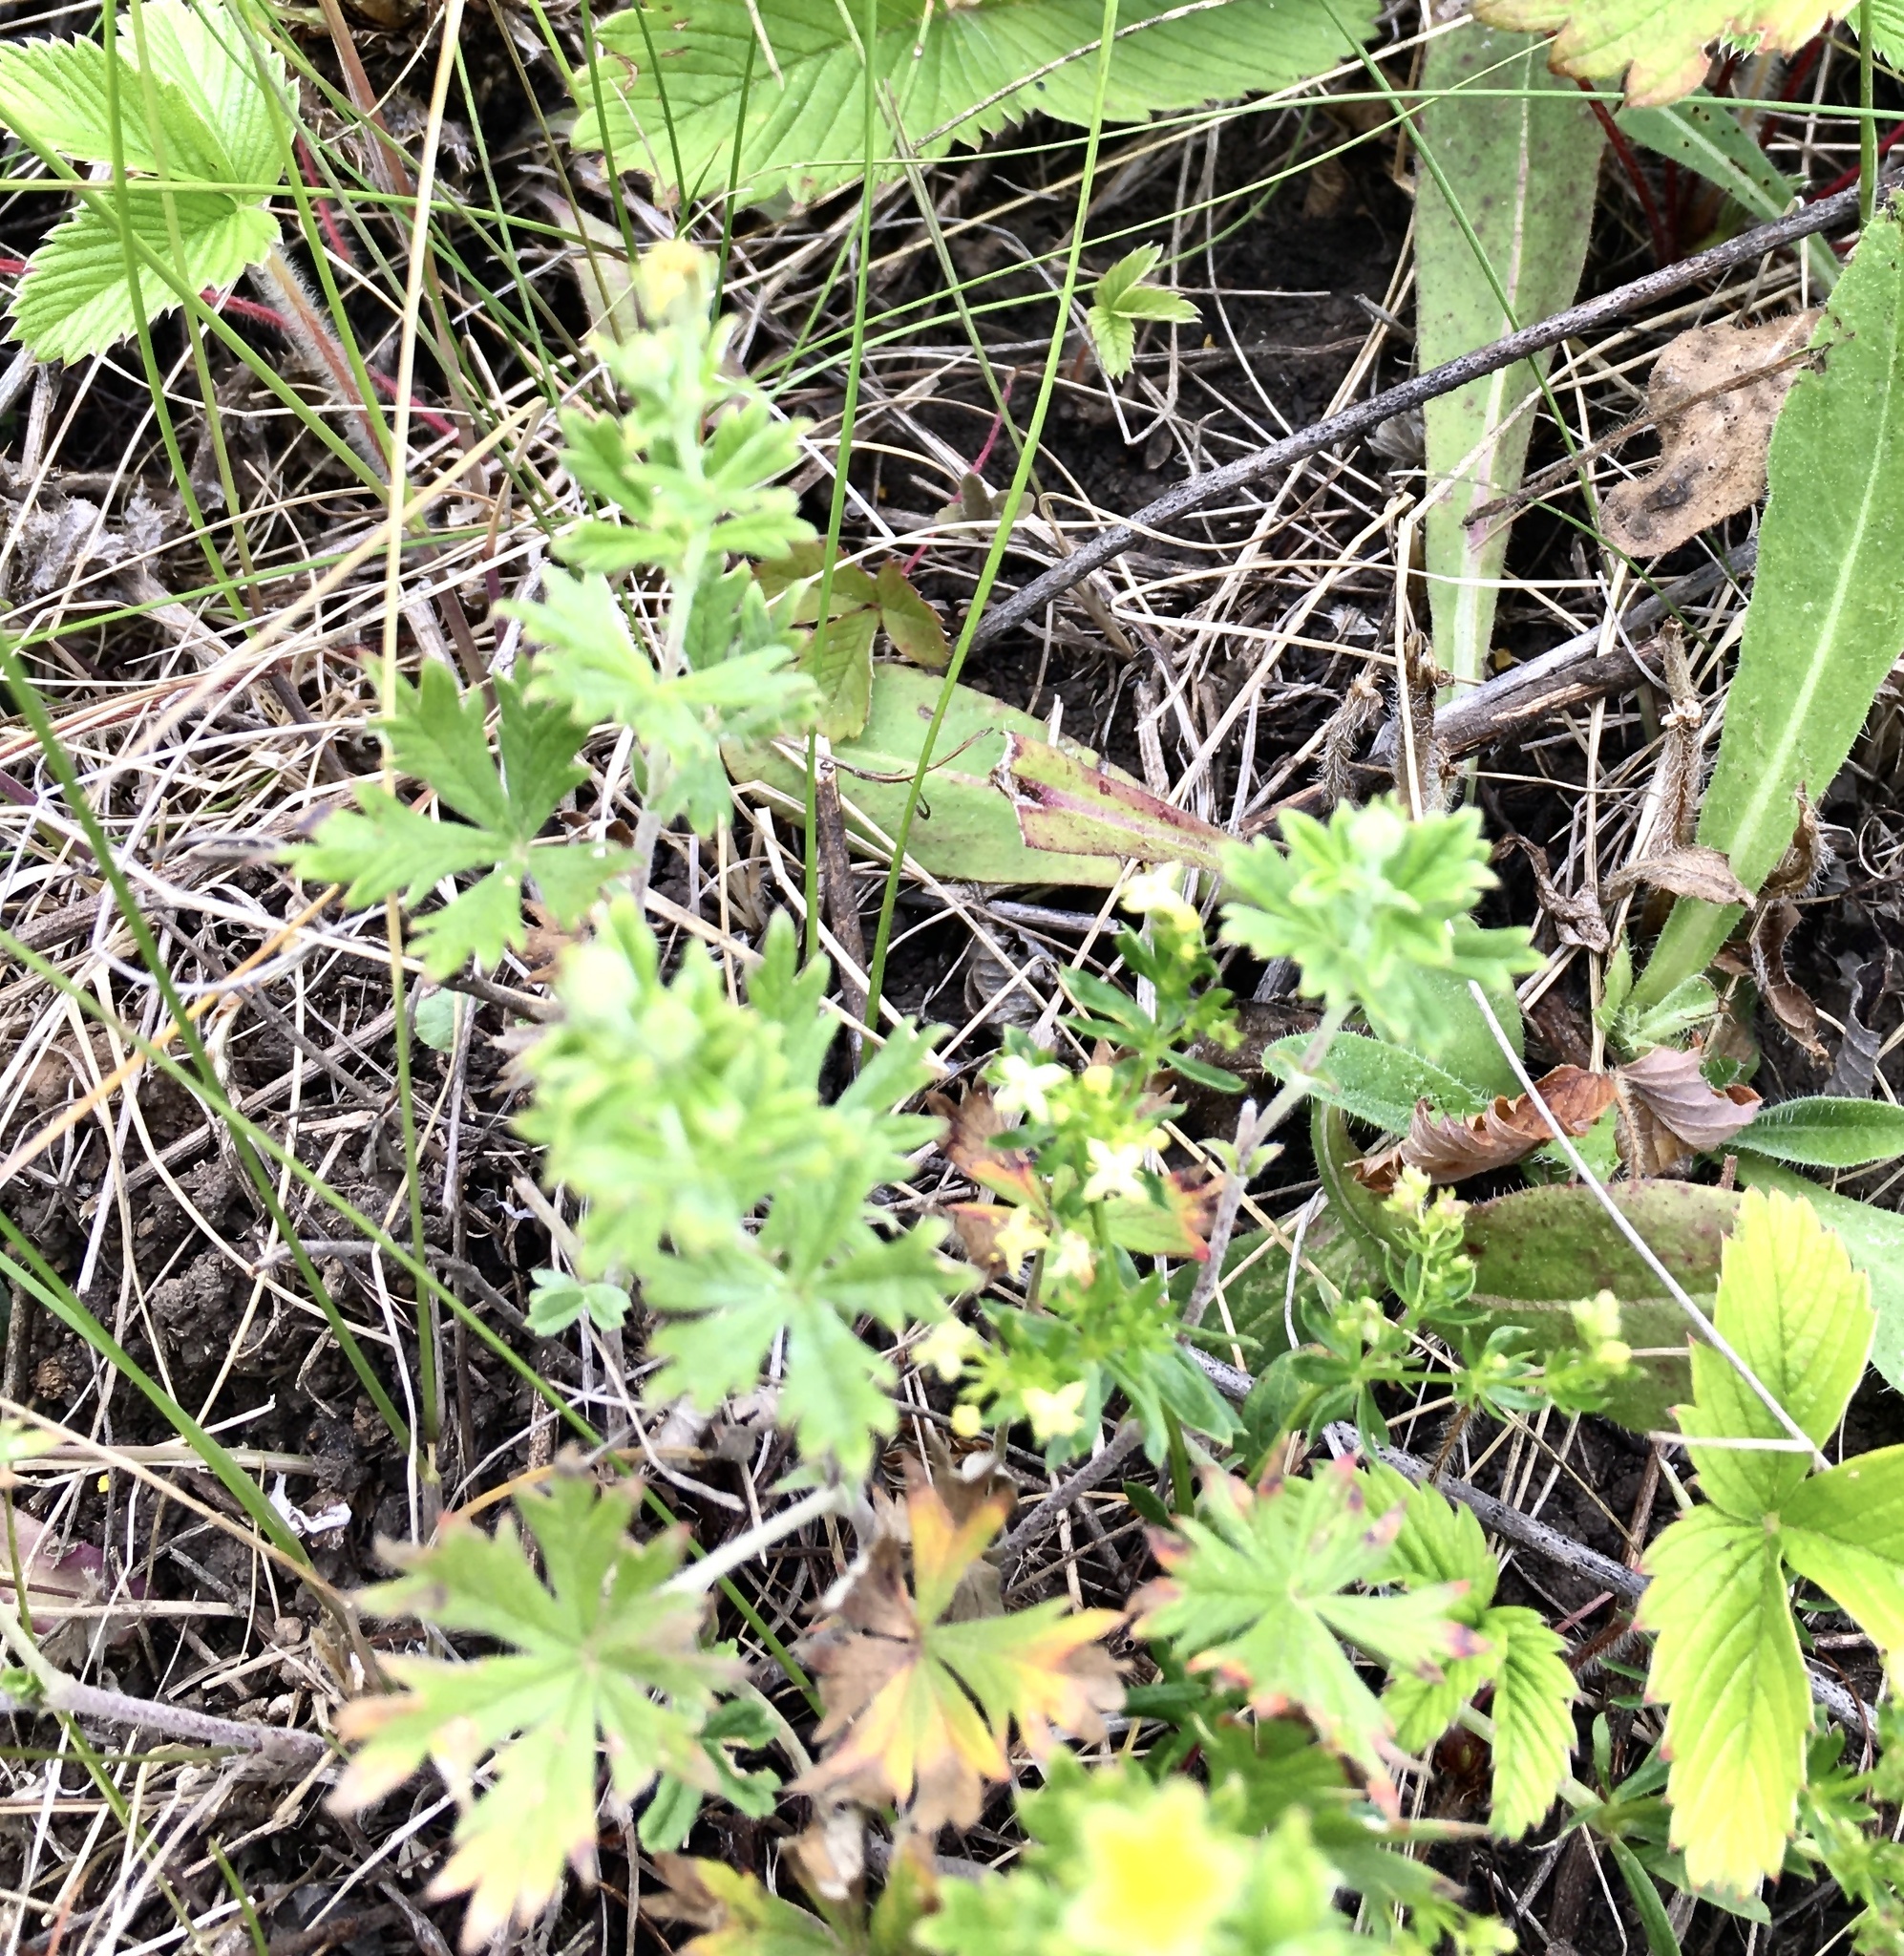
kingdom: Plantae
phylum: Tracheophyta
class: Magnoliopsida
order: Rosales
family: Rosaceae
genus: Potentilla
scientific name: Potentilla argentea
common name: Hoary cinquefoil
